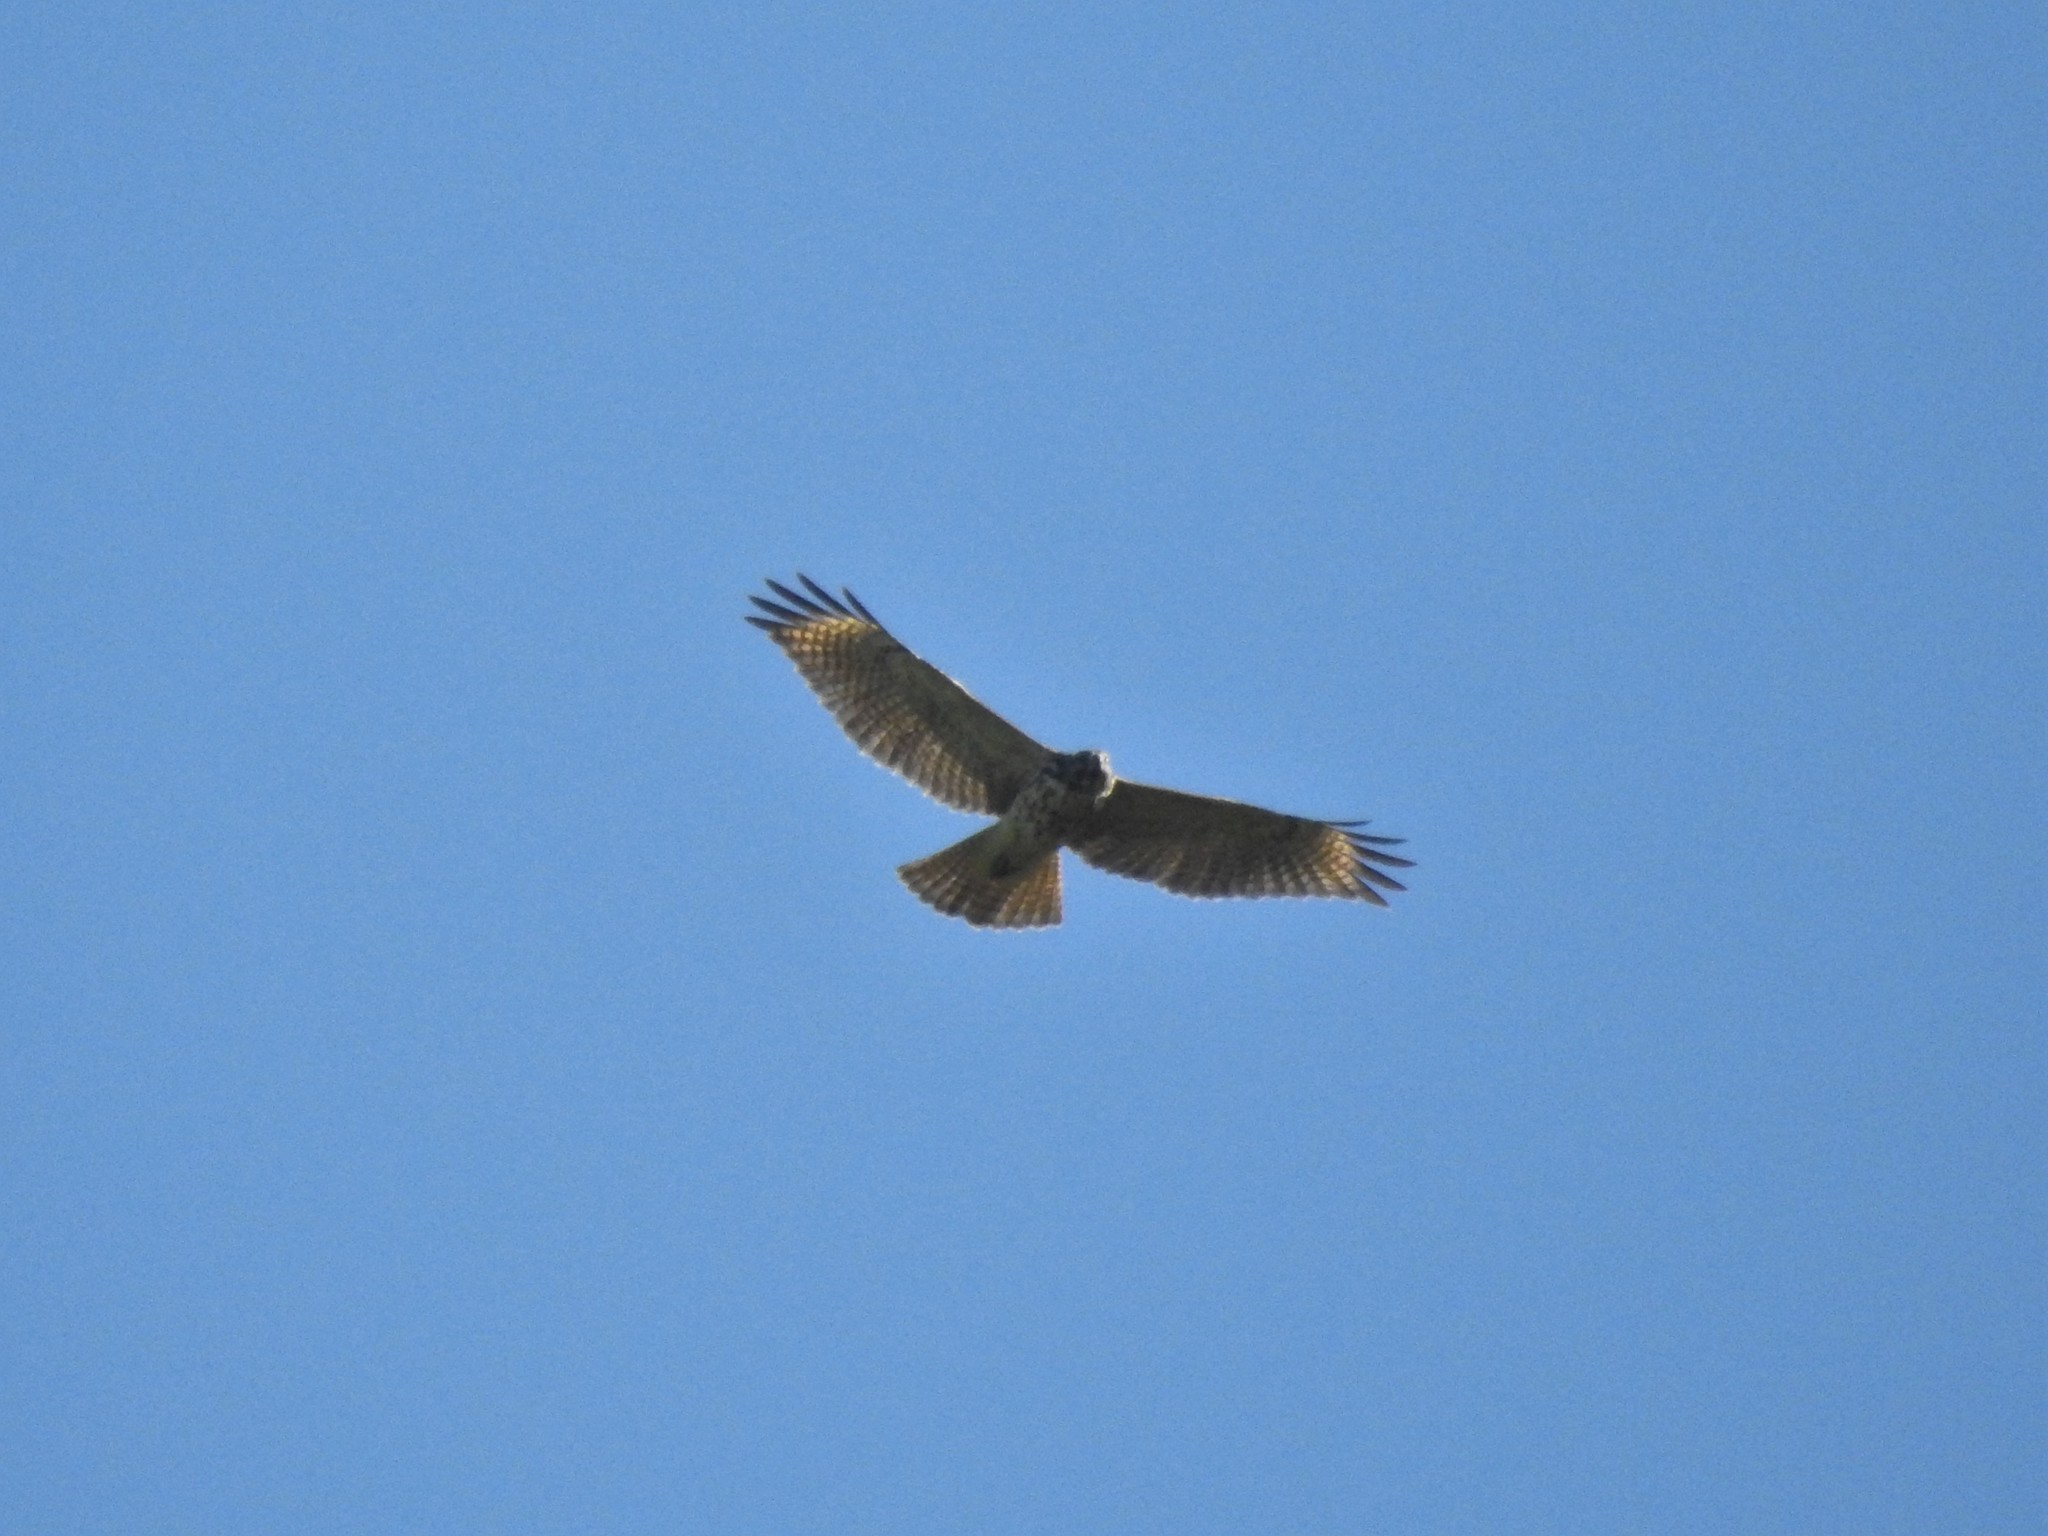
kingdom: Animalia
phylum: Chordata
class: Aves
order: Accipitriformes
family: Accipitridae
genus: Buteo
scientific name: Buteo lineatus
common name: Red-shouldered hawk
